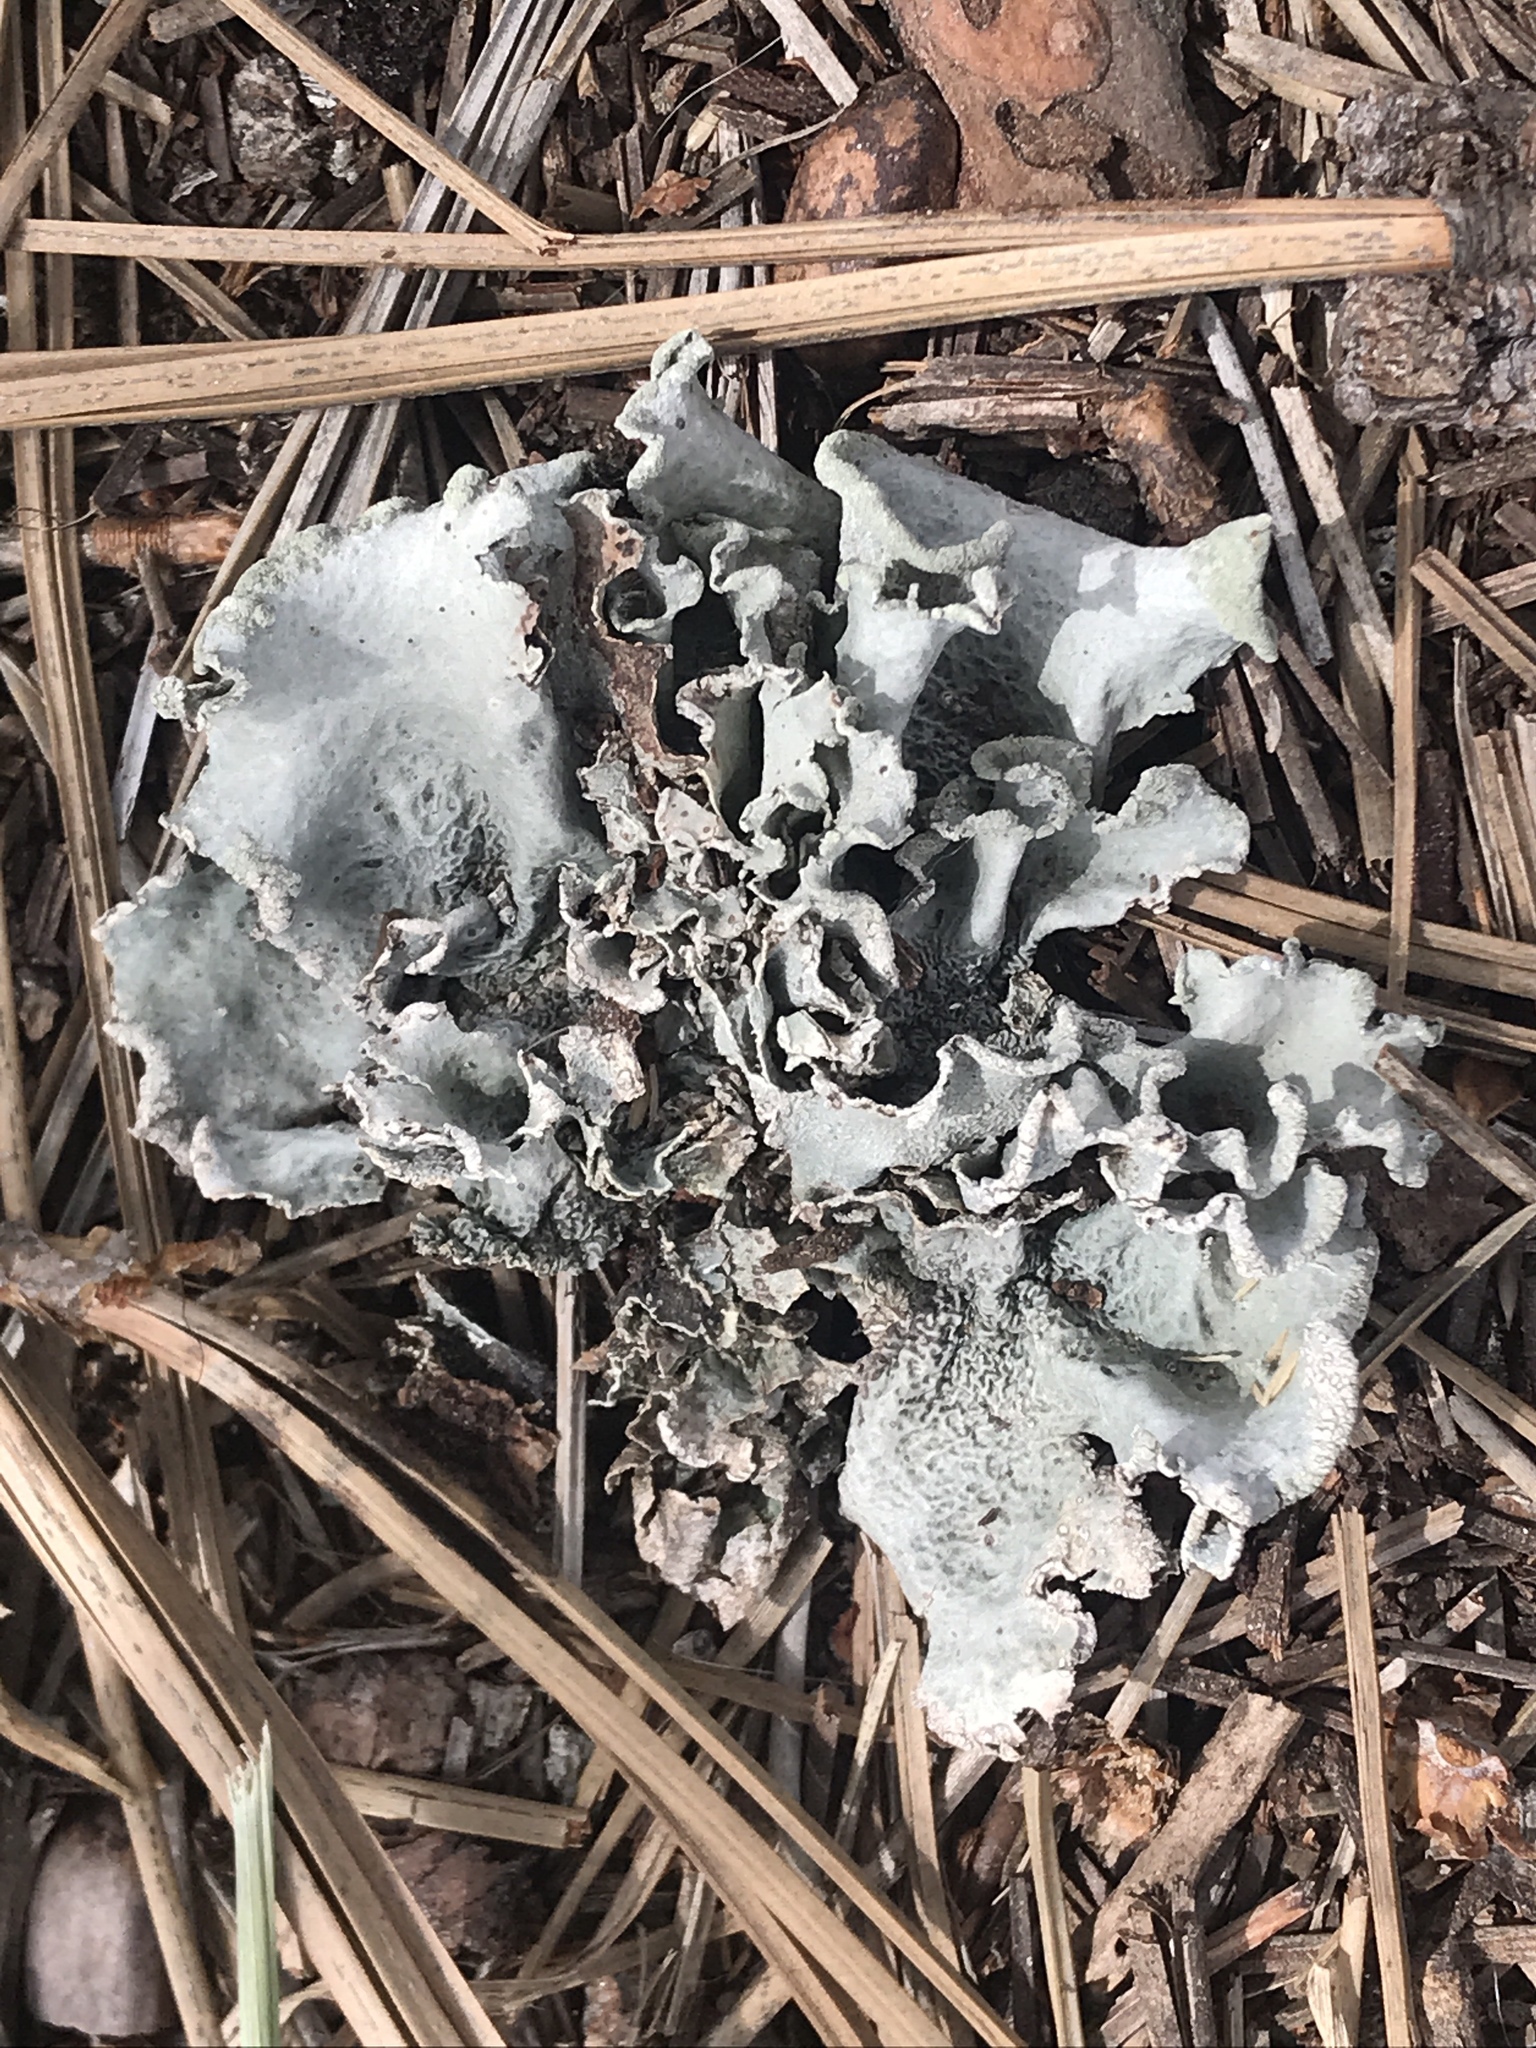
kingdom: Fungi
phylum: Ascomycota
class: Lecanoromycetes
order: Lecanorales
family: Parmeliaceae
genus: Parmotrema
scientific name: Parmotrema hypoleucinum
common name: Lacy powdered-ruffle
